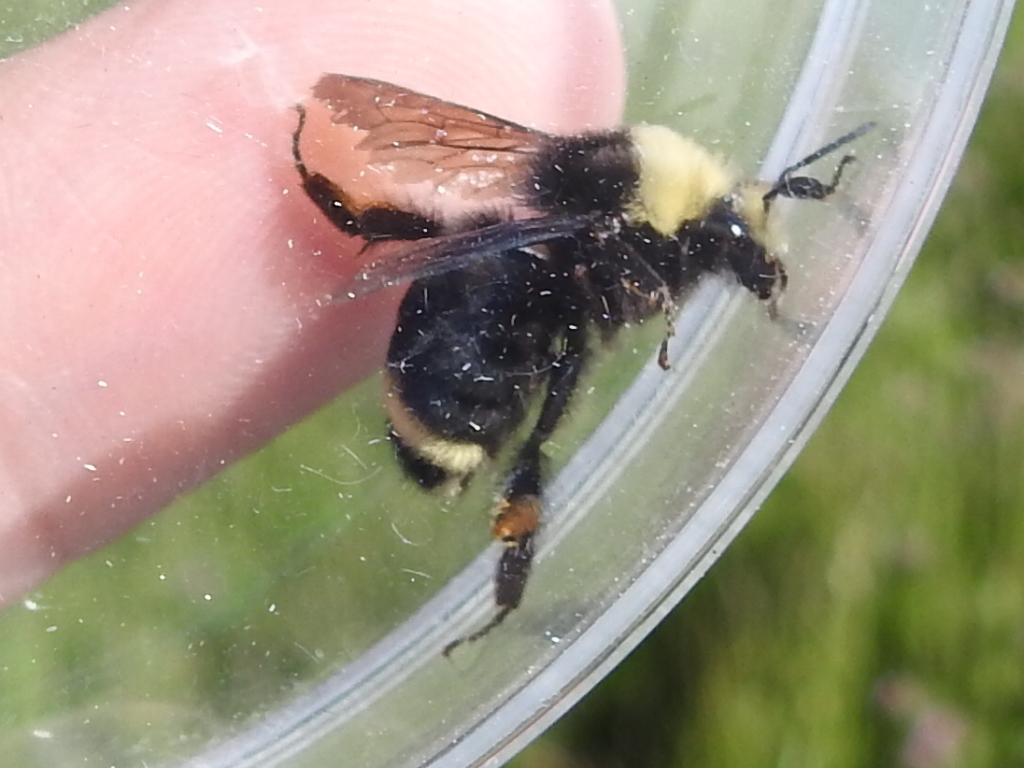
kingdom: Animalia
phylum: Arthropoda
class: Insecta
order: Hymenoptera
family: Apidae
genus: Bombus
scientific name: Bombus vosnesenskii
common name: Vosnesensky bumble bee
